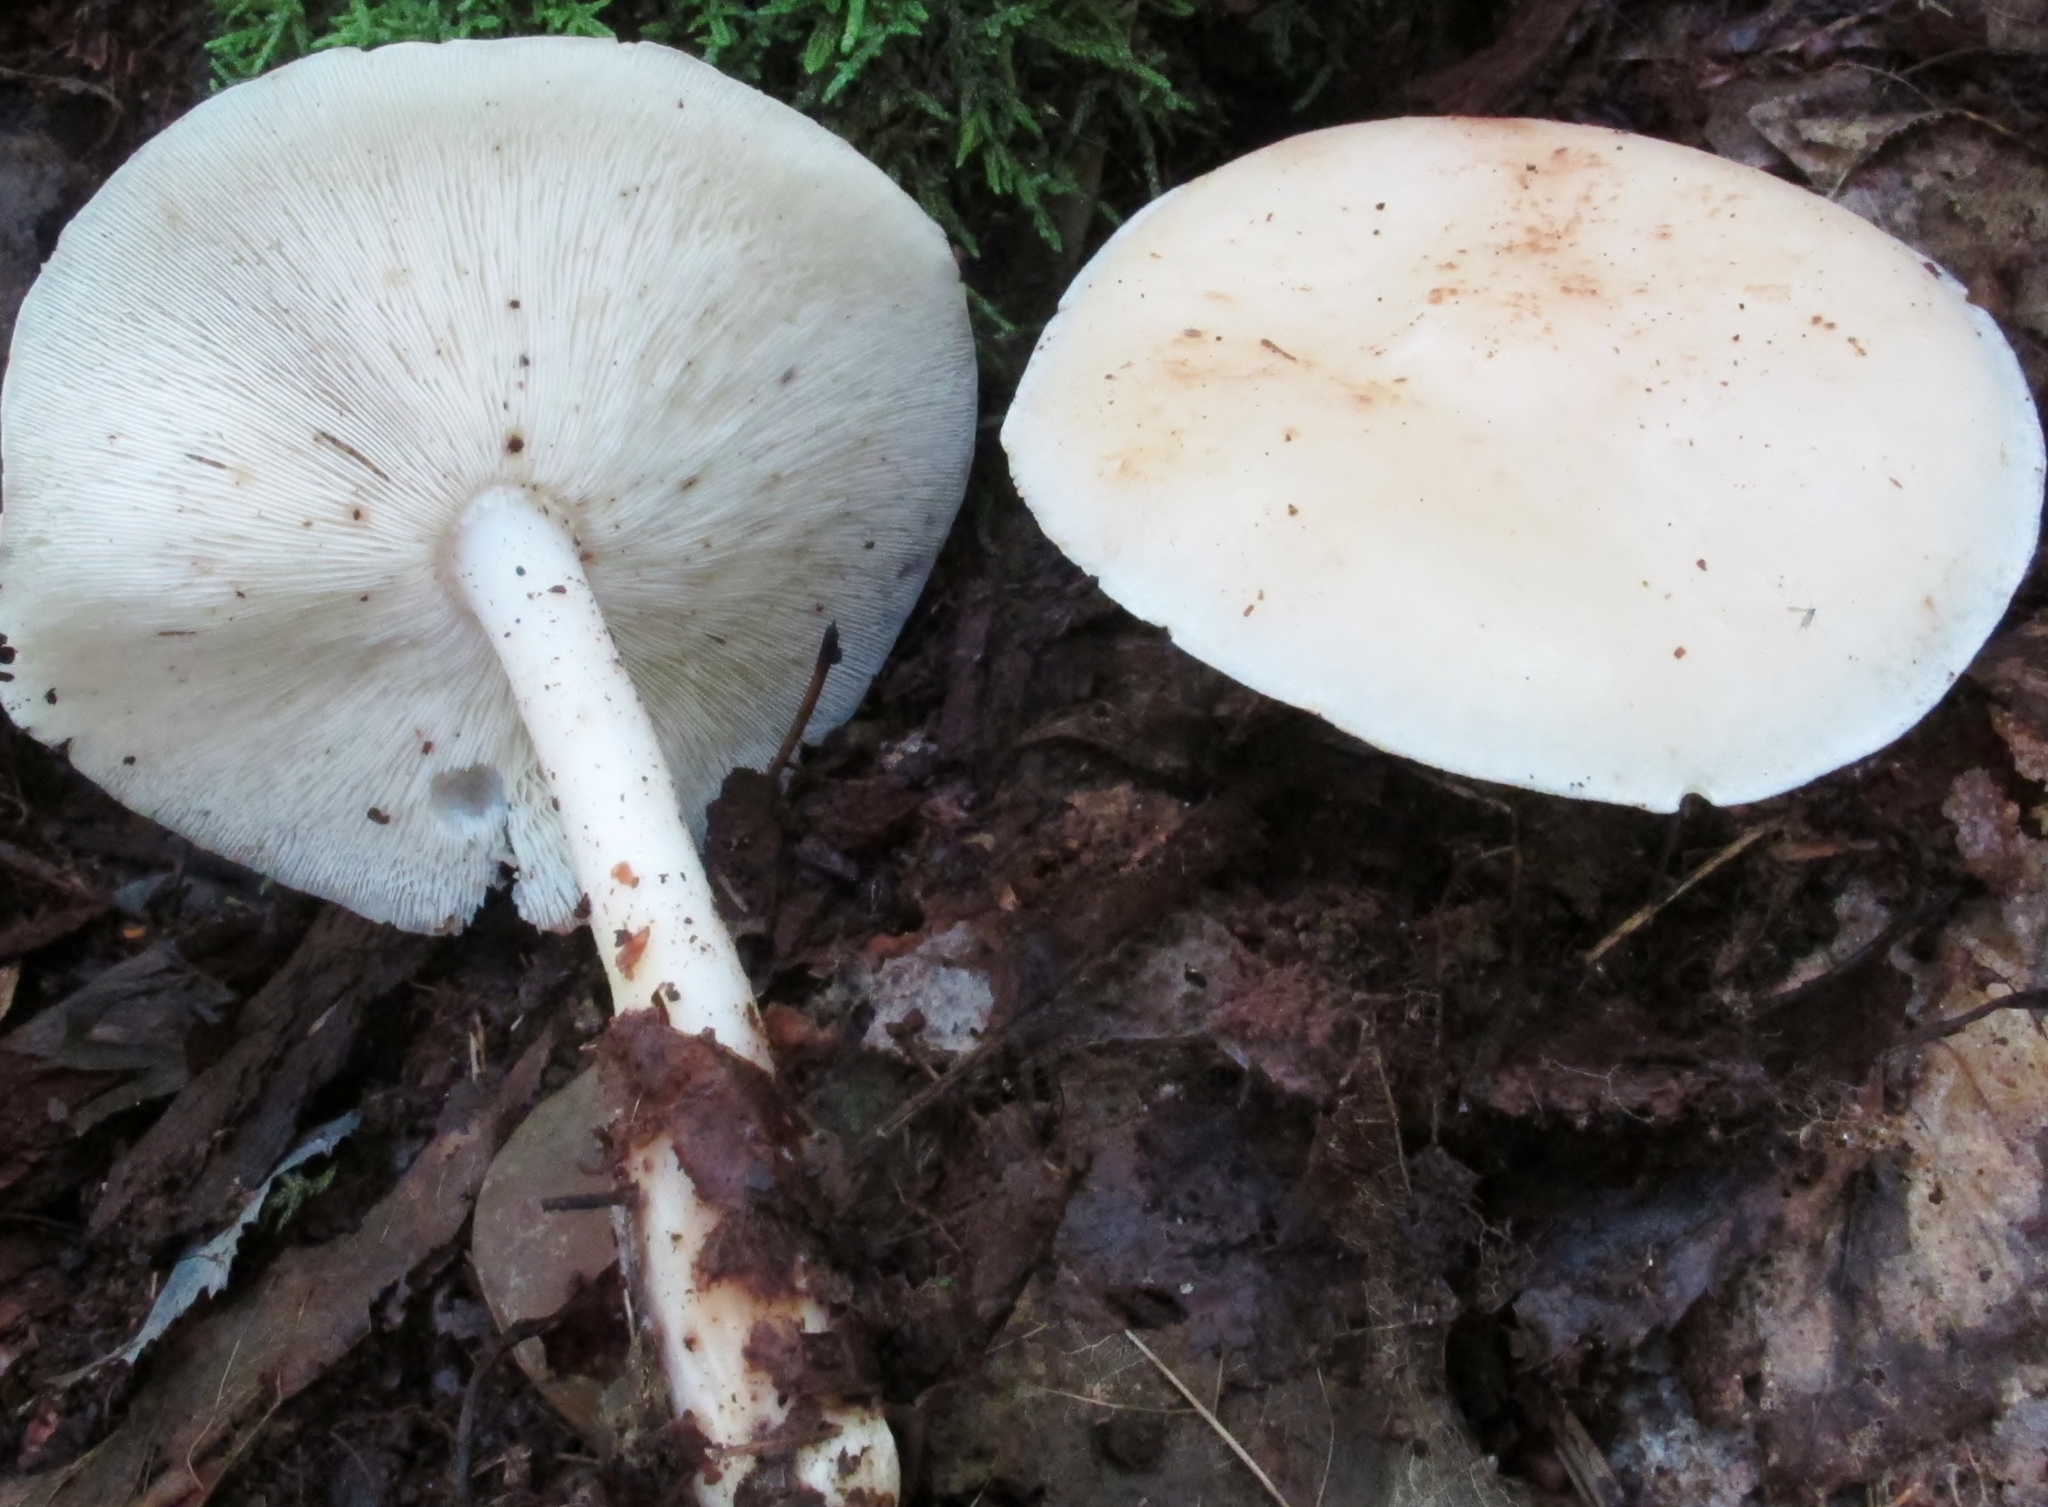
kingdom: Fungi
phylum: Basidiomycota
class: Agaricomycetes
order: Agaricales
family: Omphalotaceae
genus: Rhodocollybia
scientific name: Rhodocollybia maculata
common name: Spotted tough-shank
